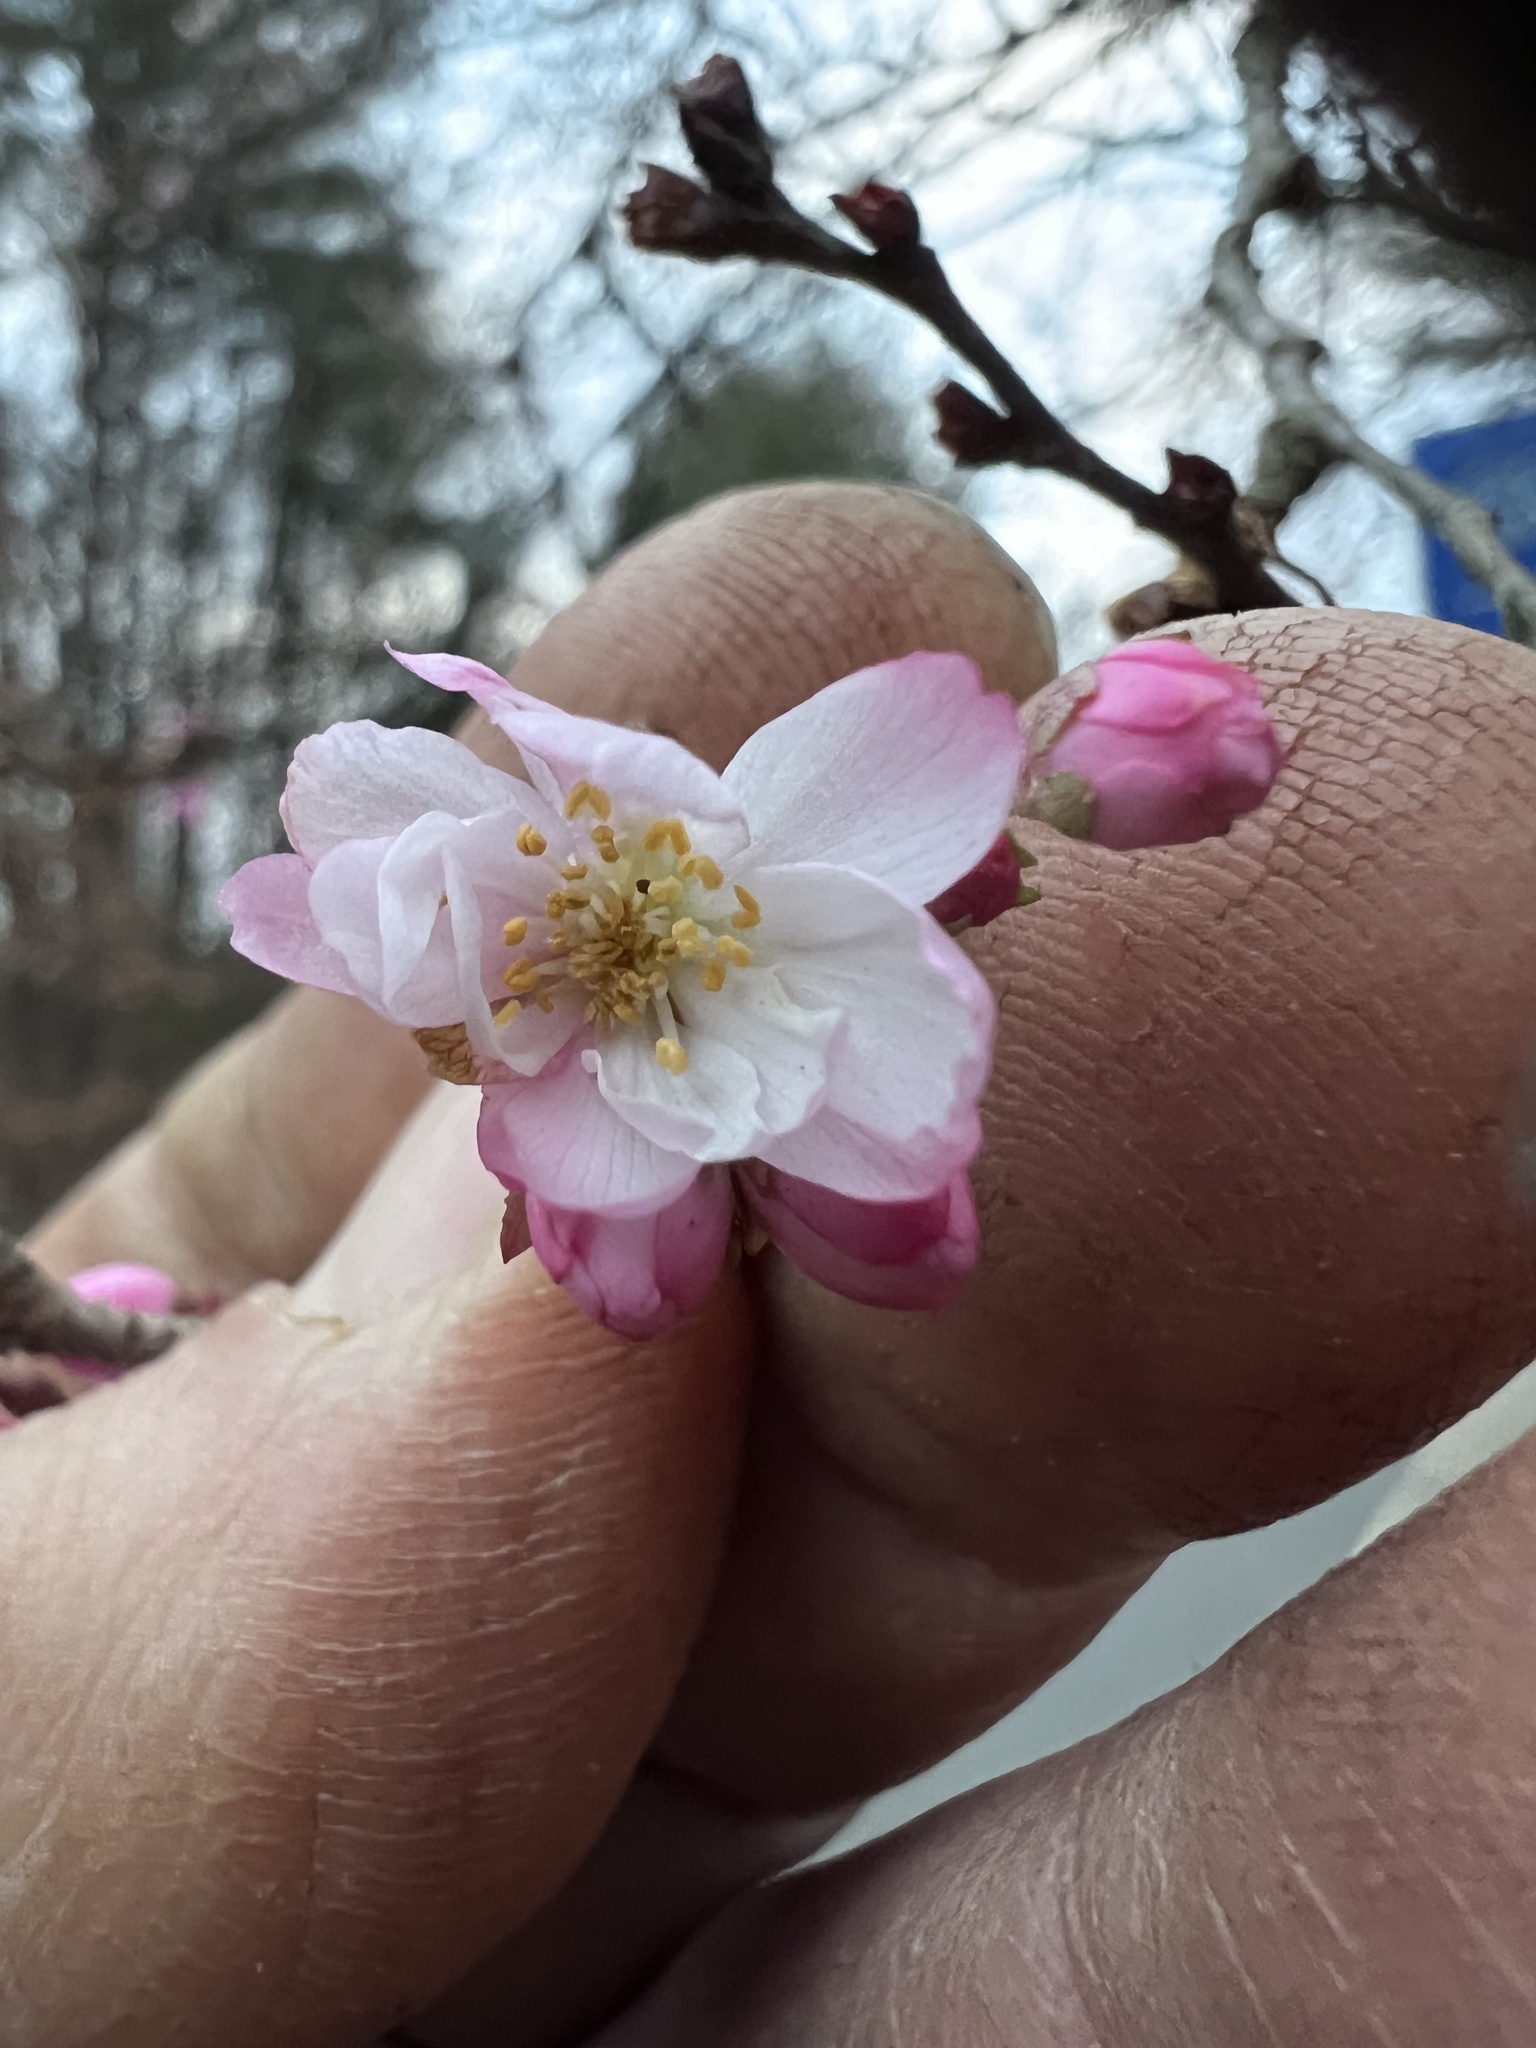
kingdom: Plantae
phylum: Tracheophyta
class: Magnoliopsida
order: Rosales
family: Rosaceae
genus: Prunus
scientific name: Prunus serrulata
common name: Japanese cherry
